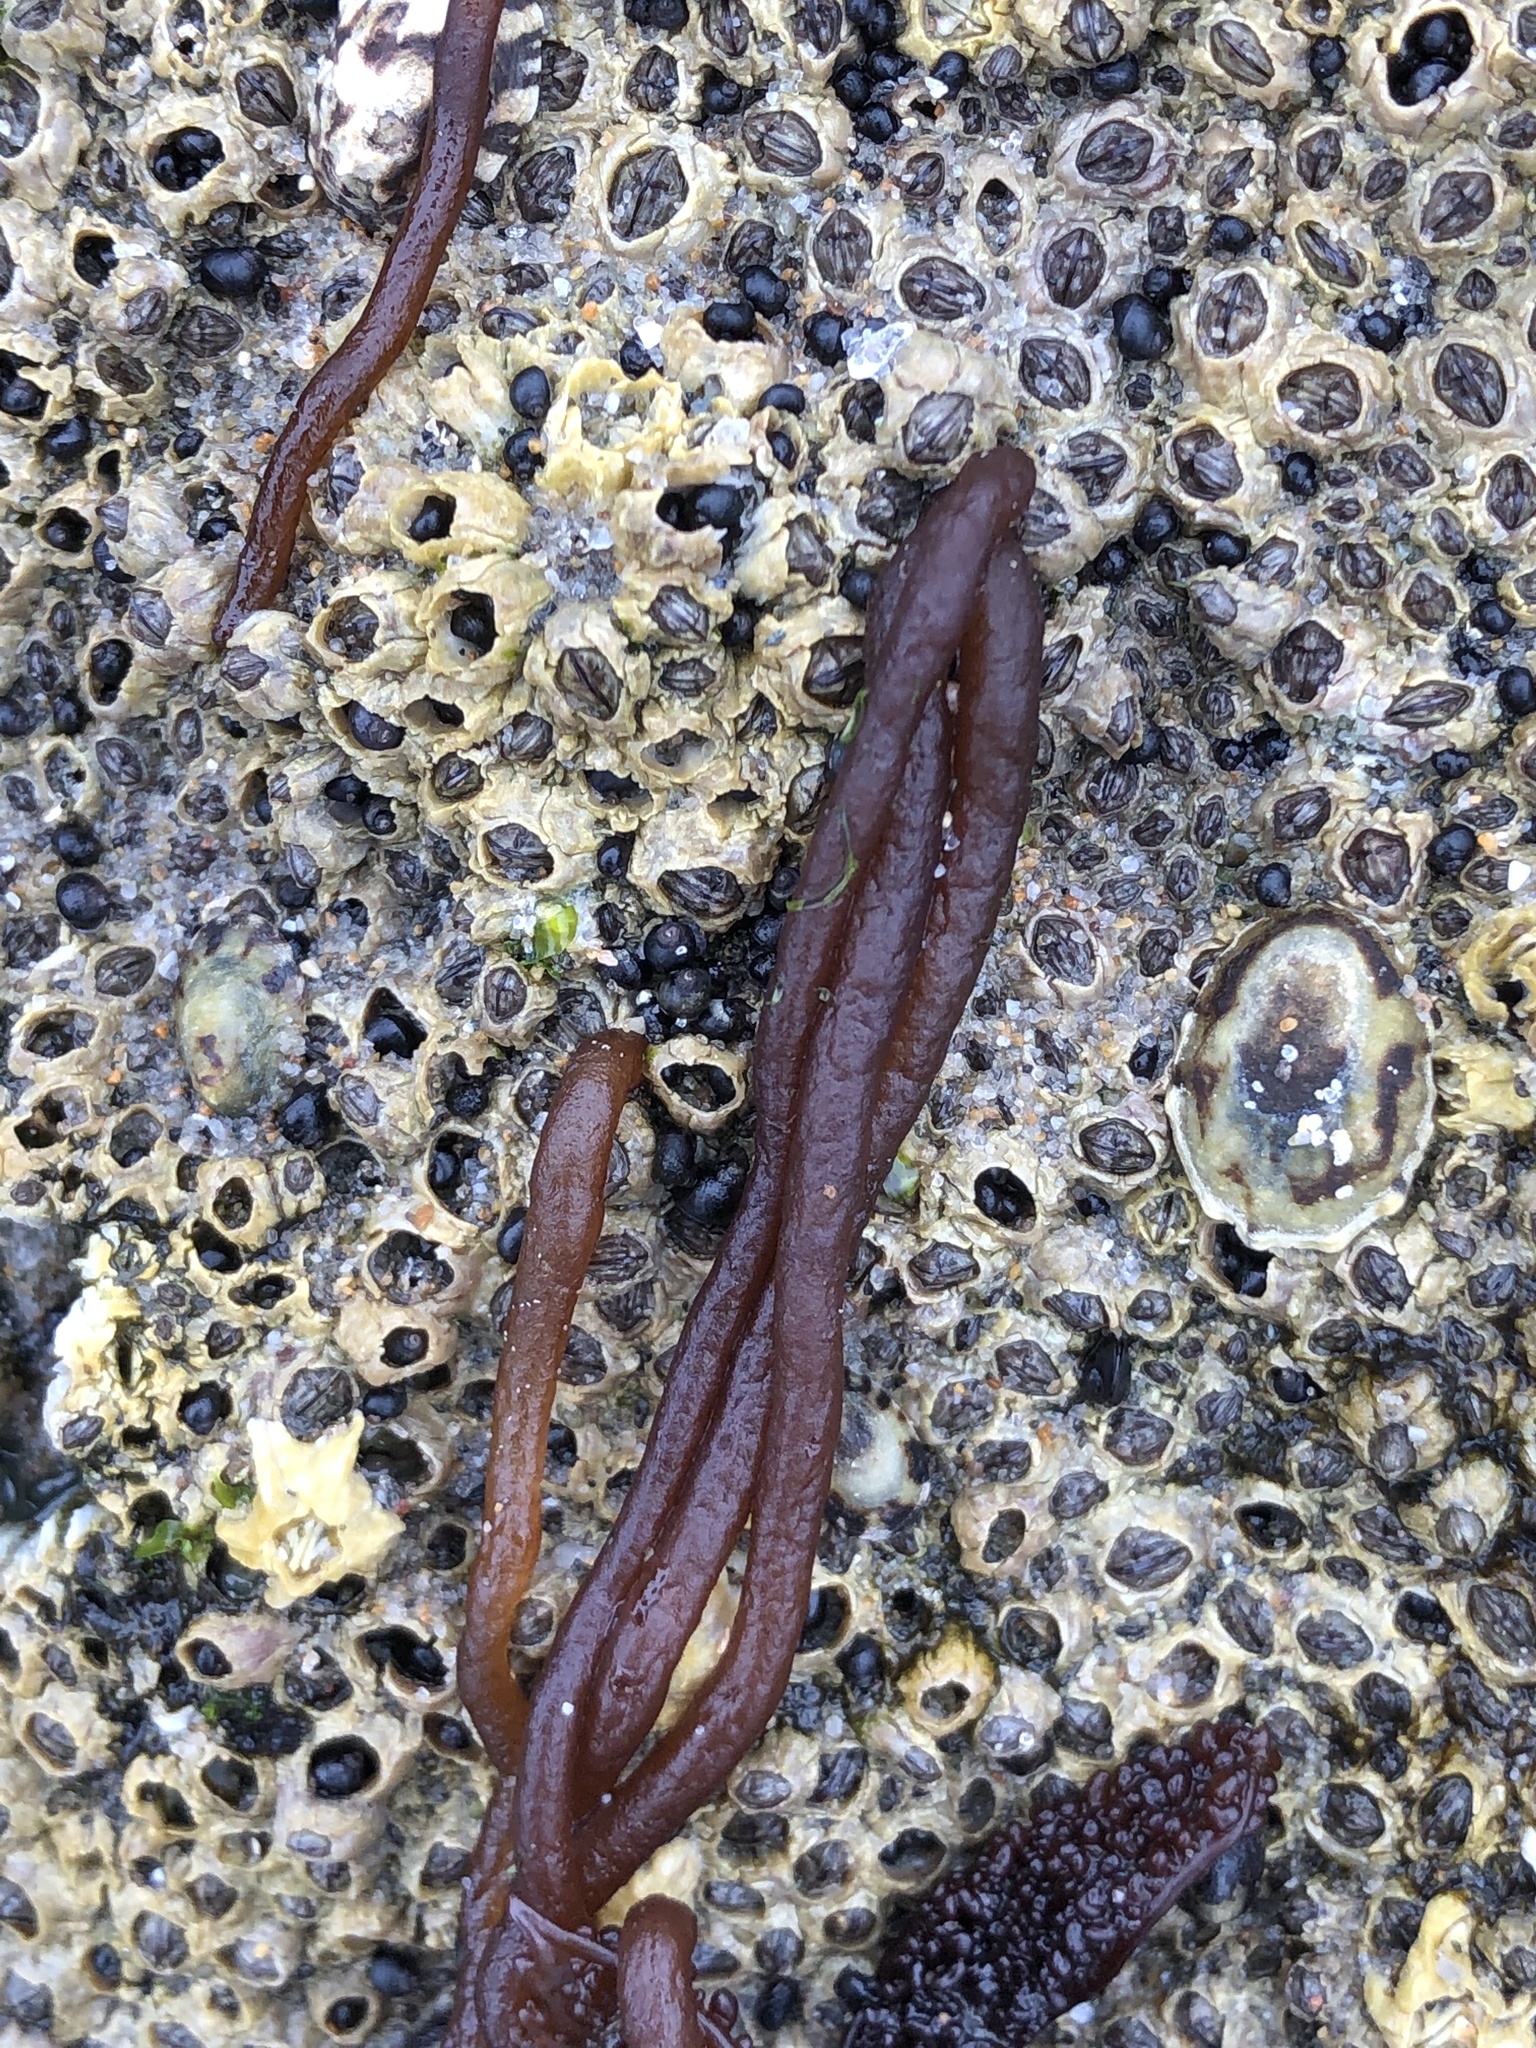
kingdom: Plantae
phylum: Rhodophyta
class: Florideophyceae
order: Nemaliales
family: Nemaliaceae
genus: Nemalion
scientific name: Nemalion elminthoides
